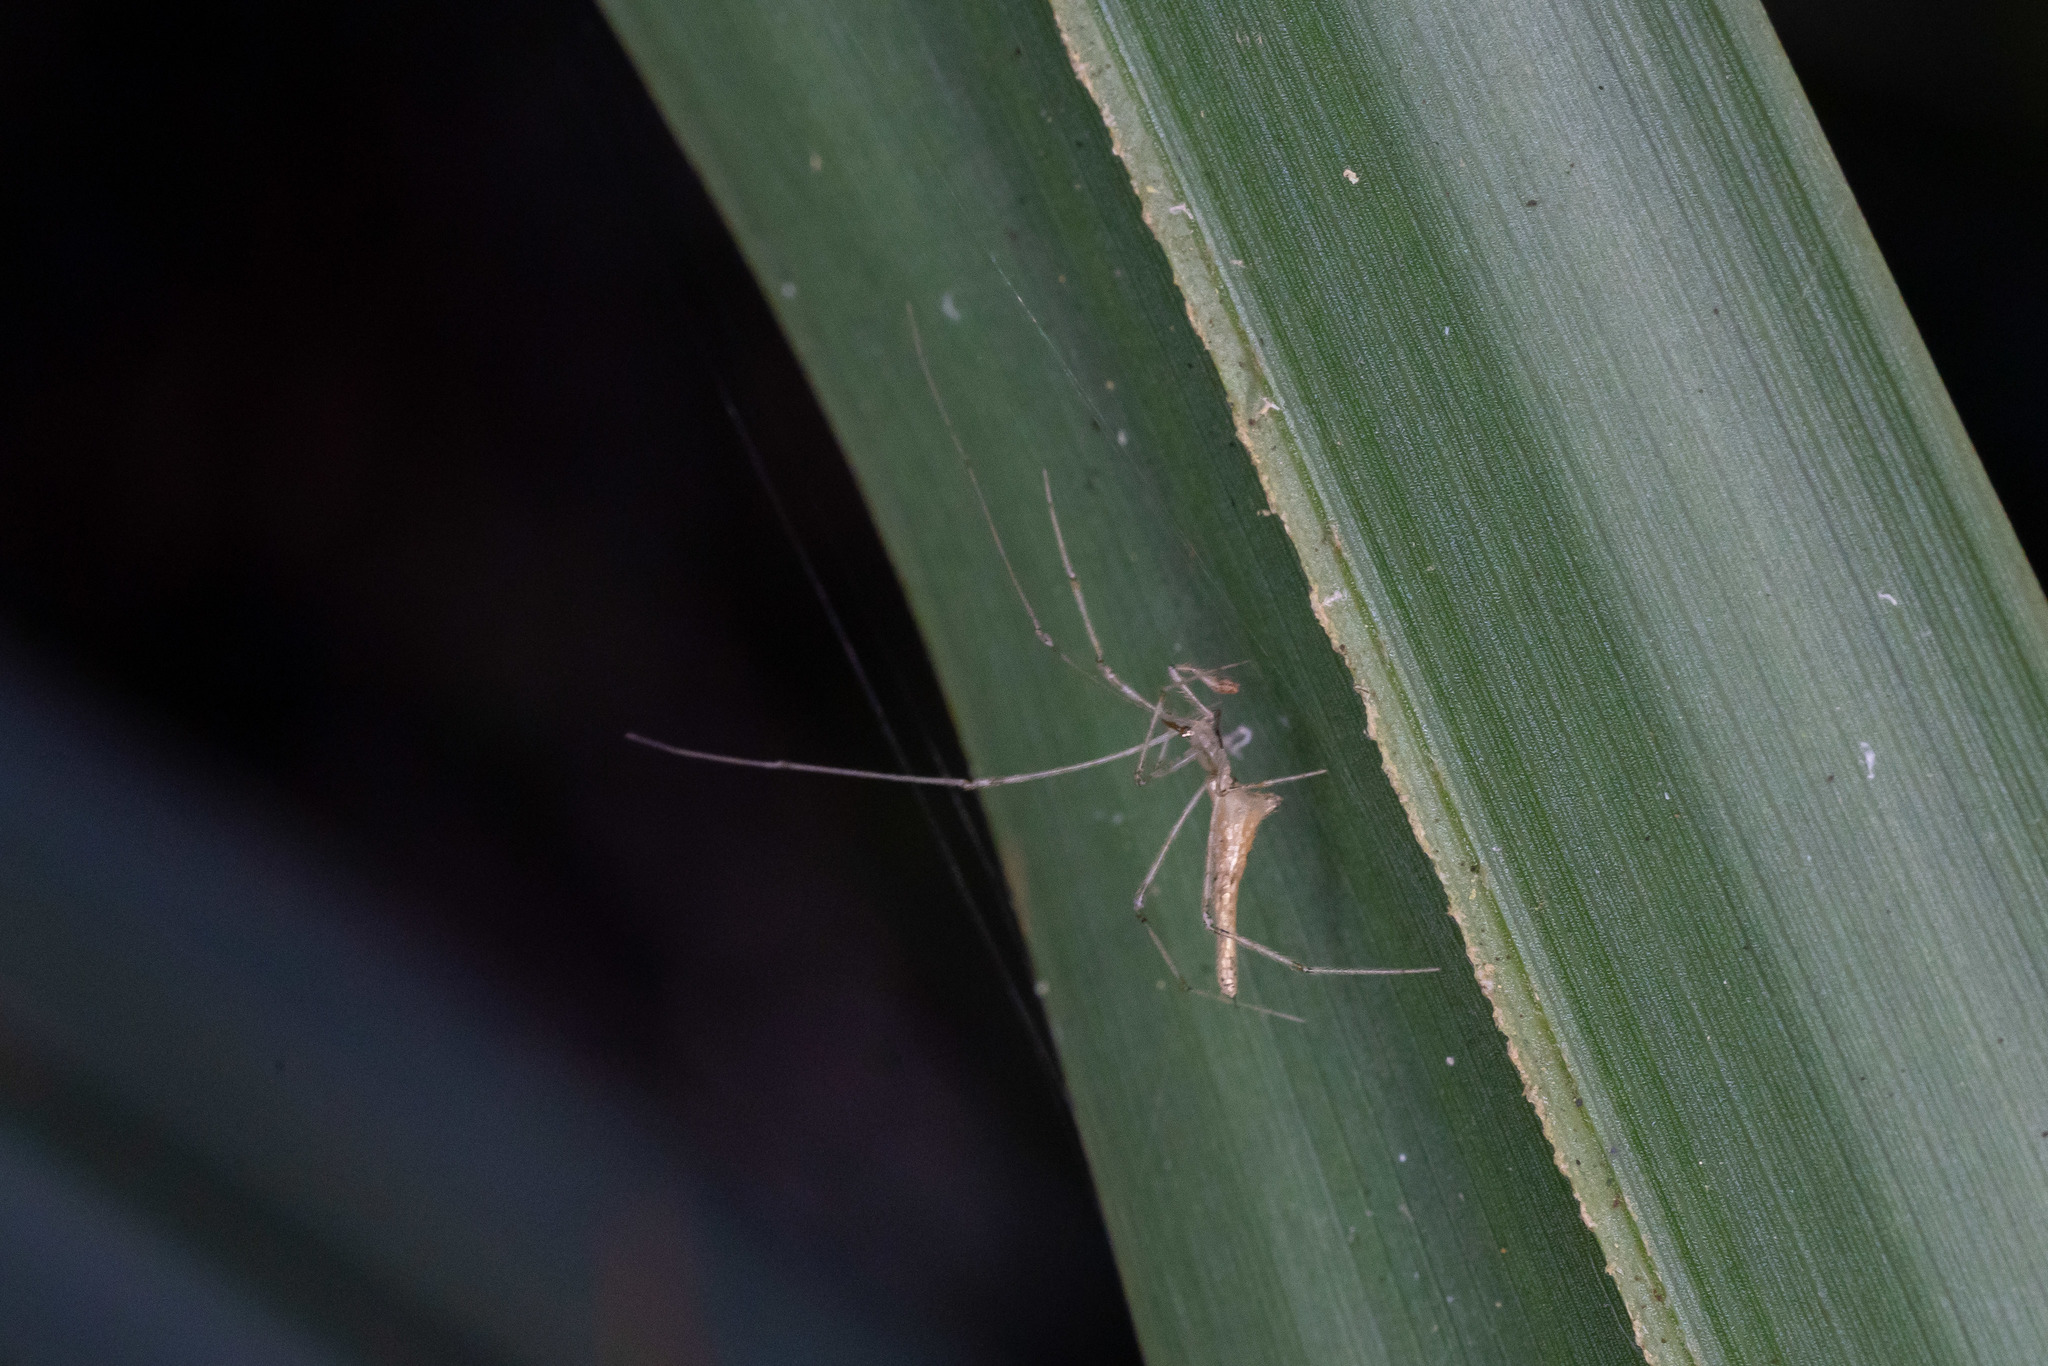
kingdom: Animalia
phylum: Arthropoda
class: Arachnida
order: Araneae
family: Theridiidae
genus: Rhomphaea
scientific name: Rhomphaea projiciens
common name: Cobweb spiders
